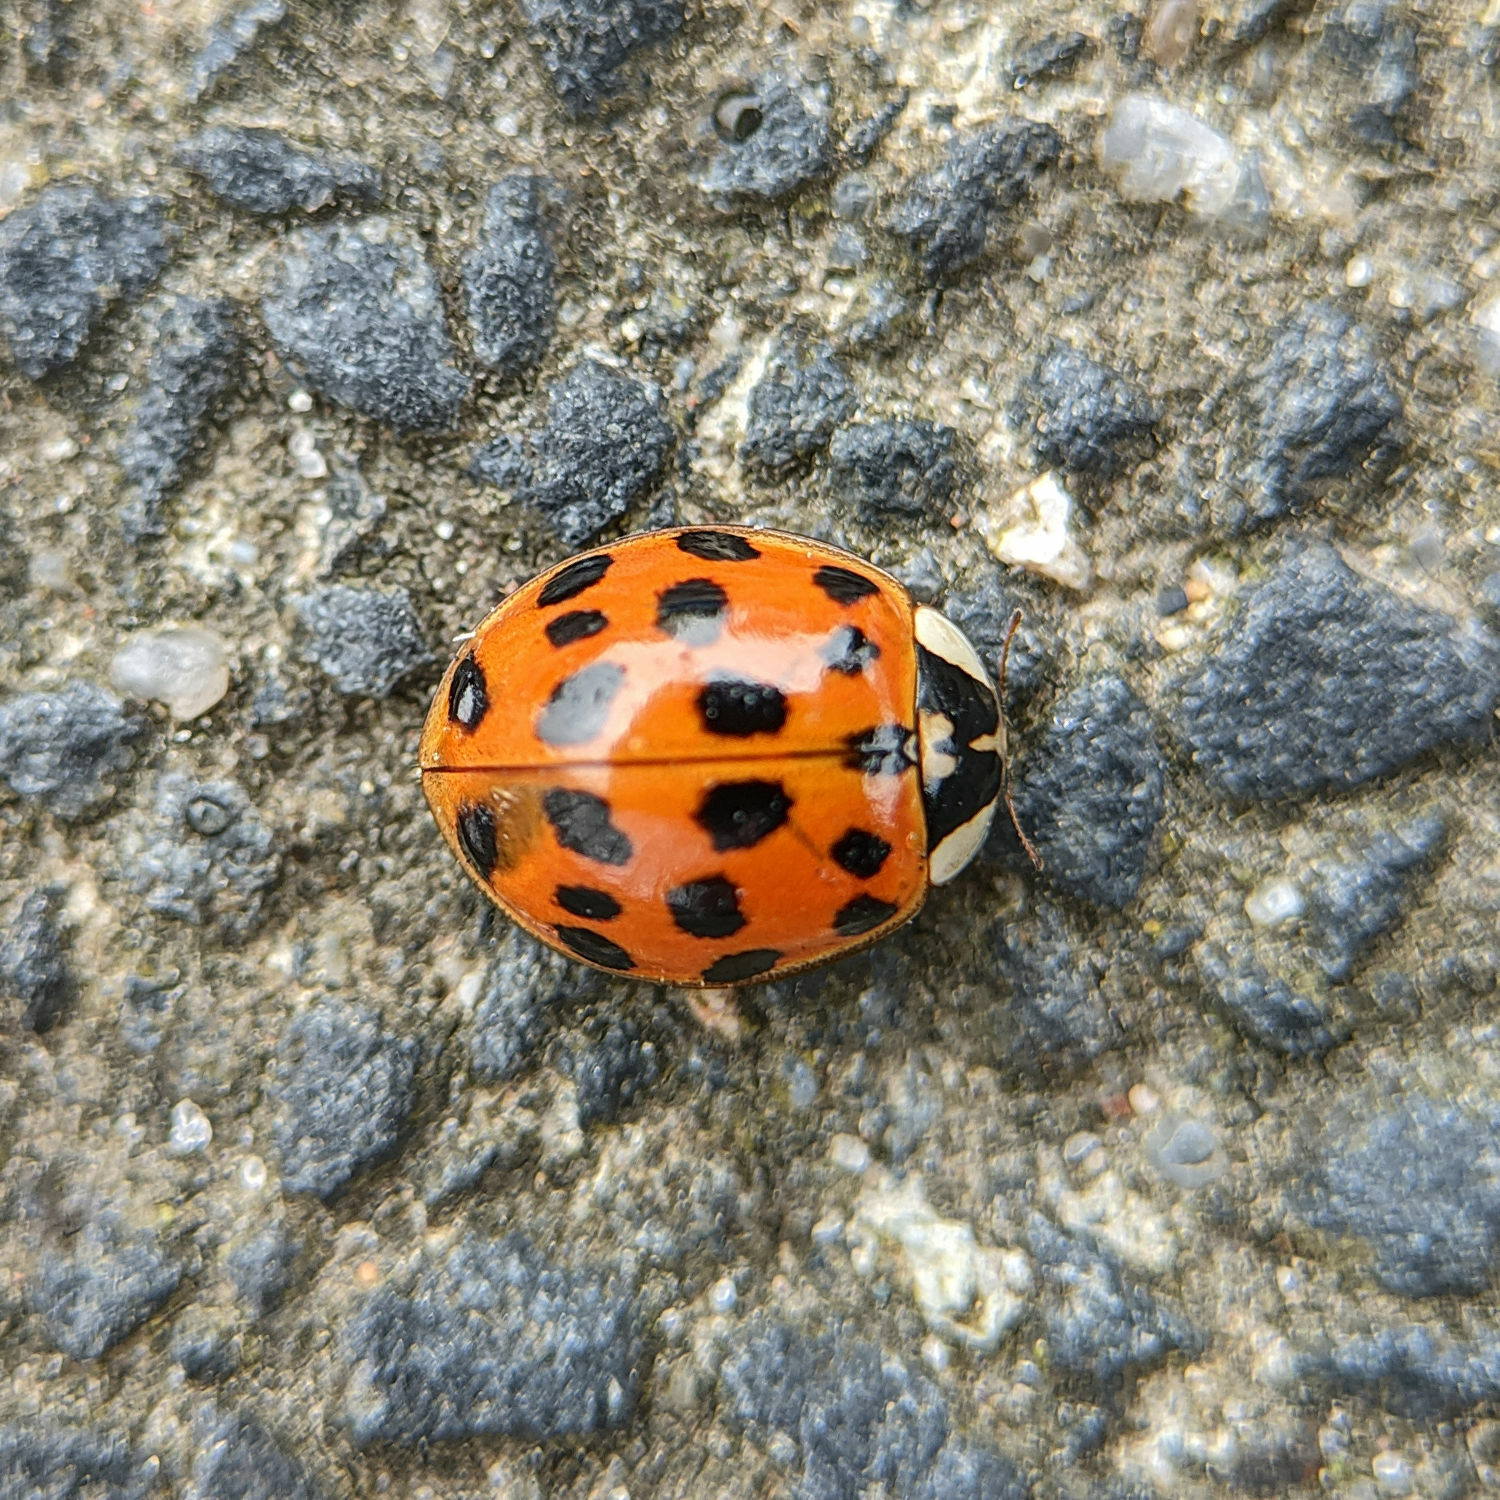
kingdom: Animalia
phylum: Arthropoda
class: Insecta
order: Coleoptera
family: Coccinellidae
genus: Harmonia
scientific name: Harmonia axyridis
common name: Harlequin ladybird
